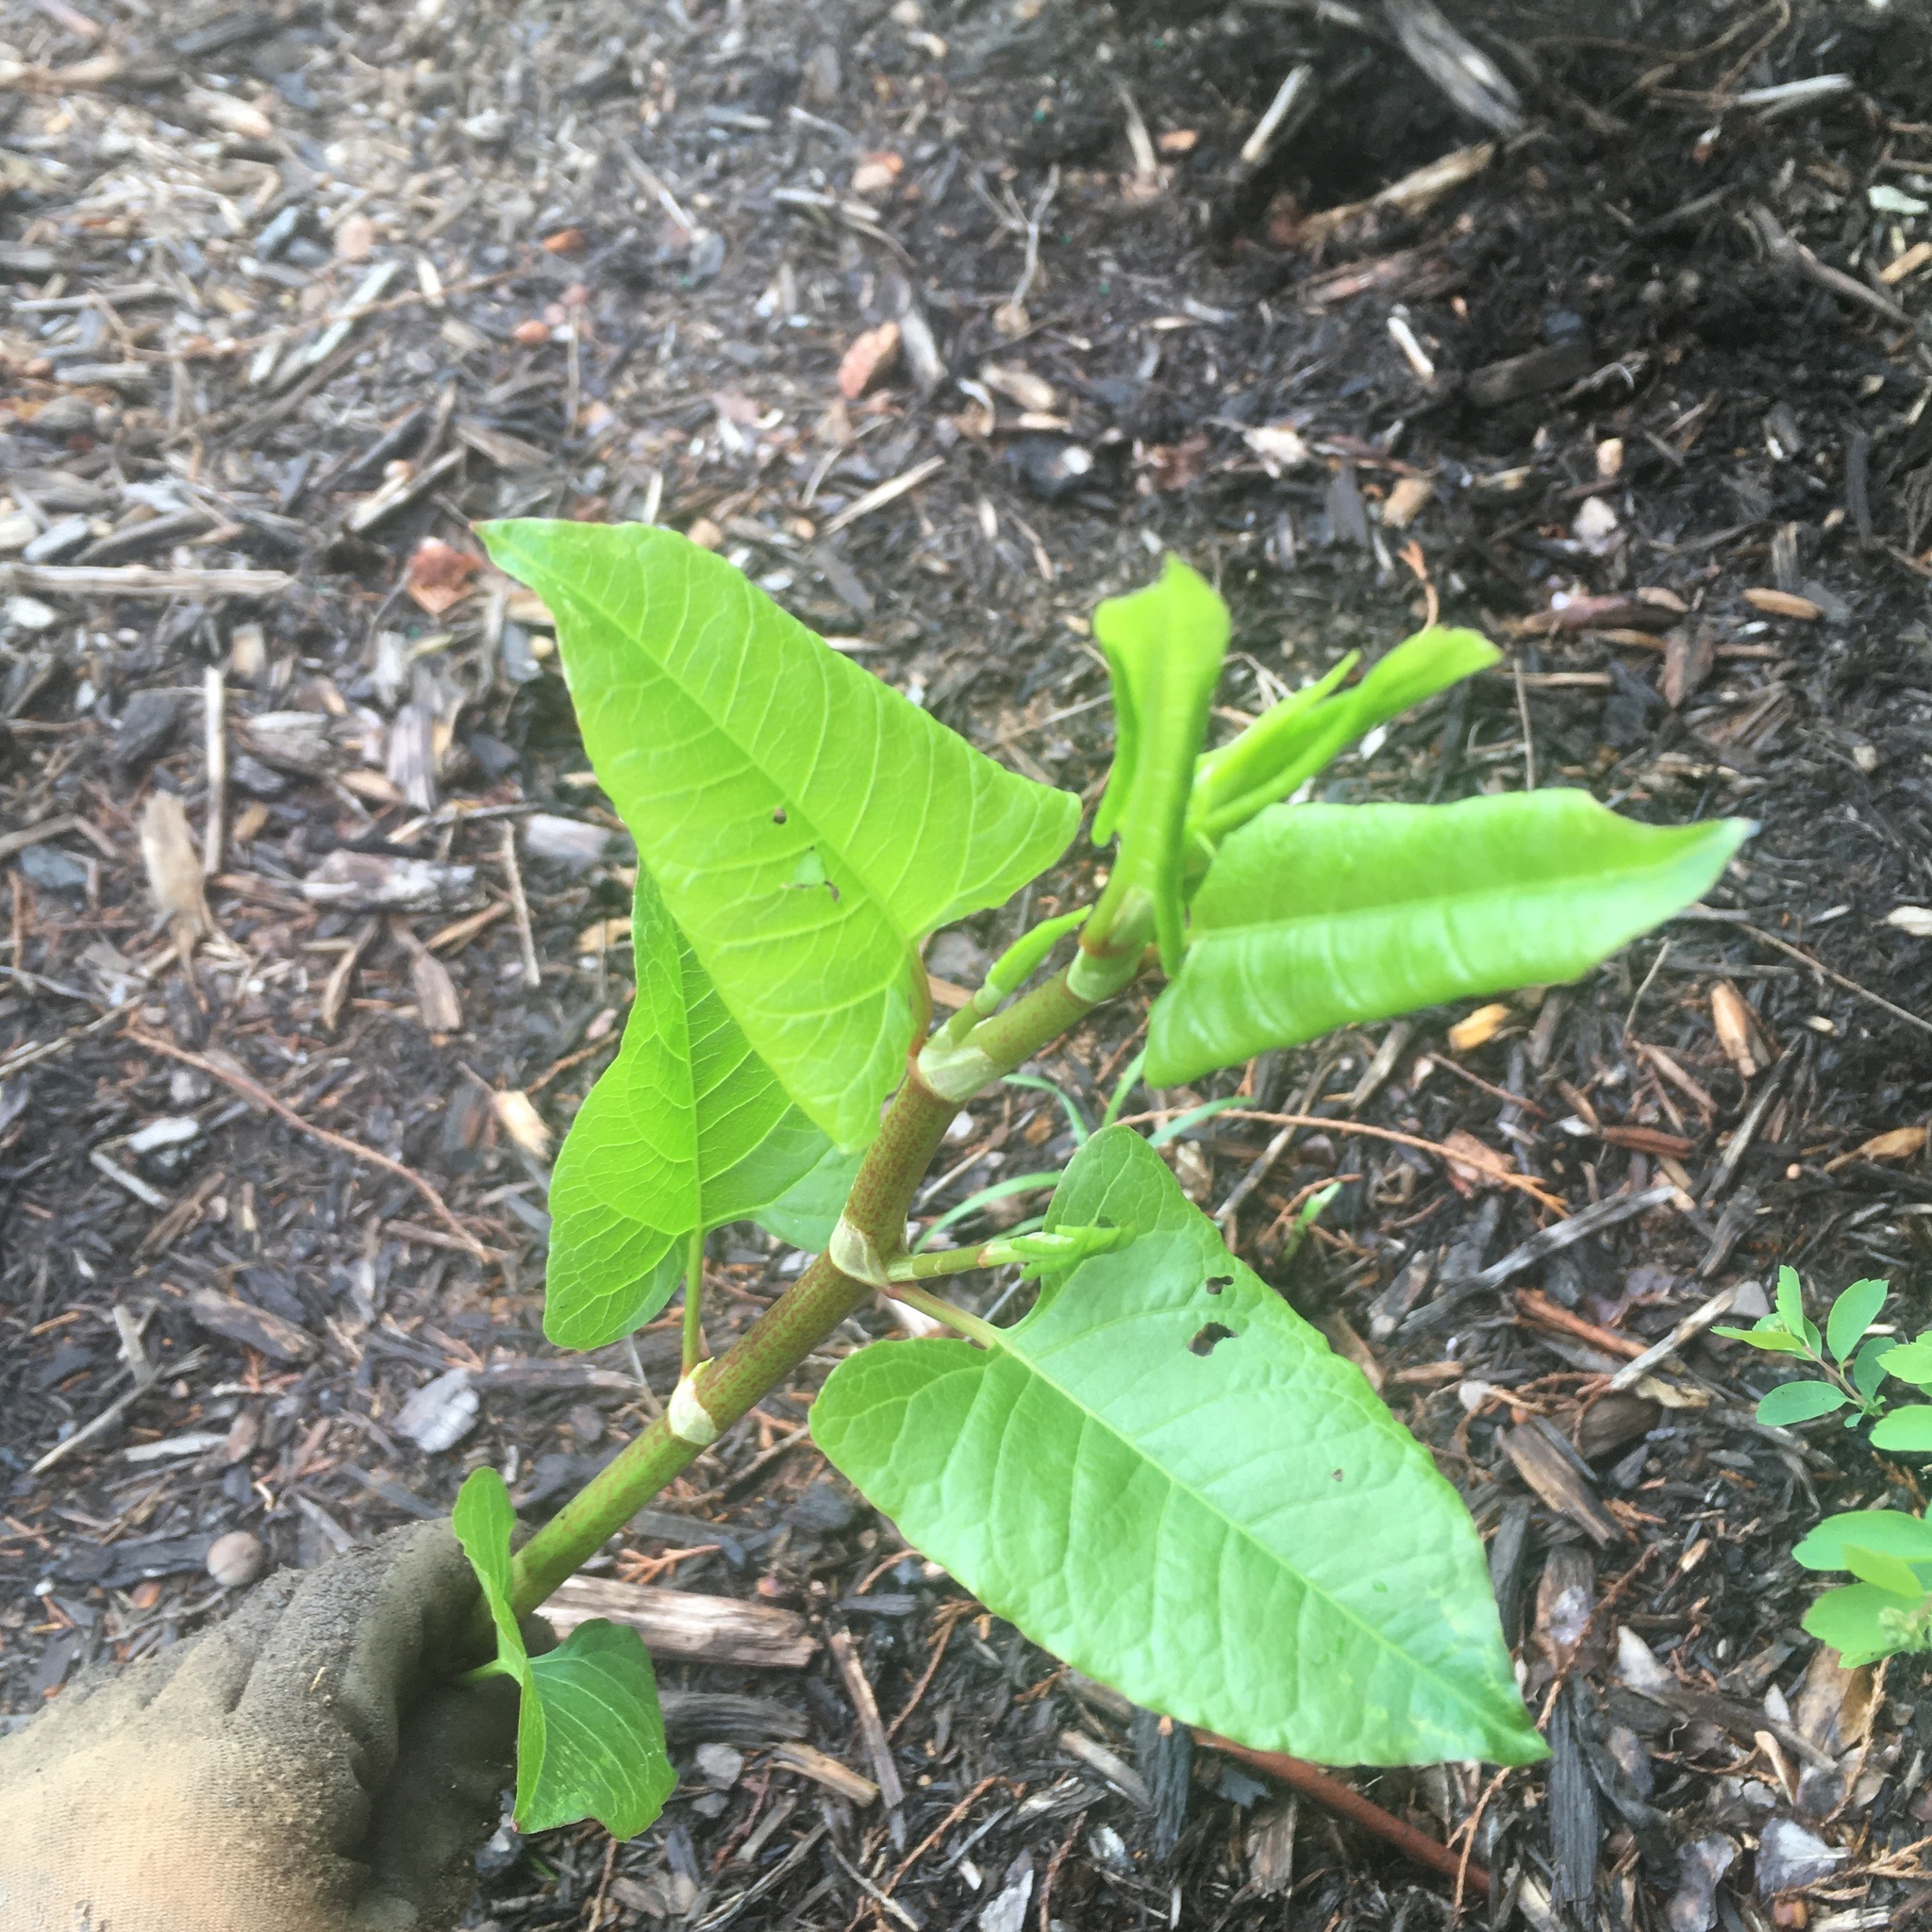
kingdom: Plantae
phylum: Tracheophyta
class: Magnoliopsida
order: Caryophyllales
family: Polygonaceae
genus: Reynoutria
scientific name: Reynoutria japonica
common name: Japanese knotweed
